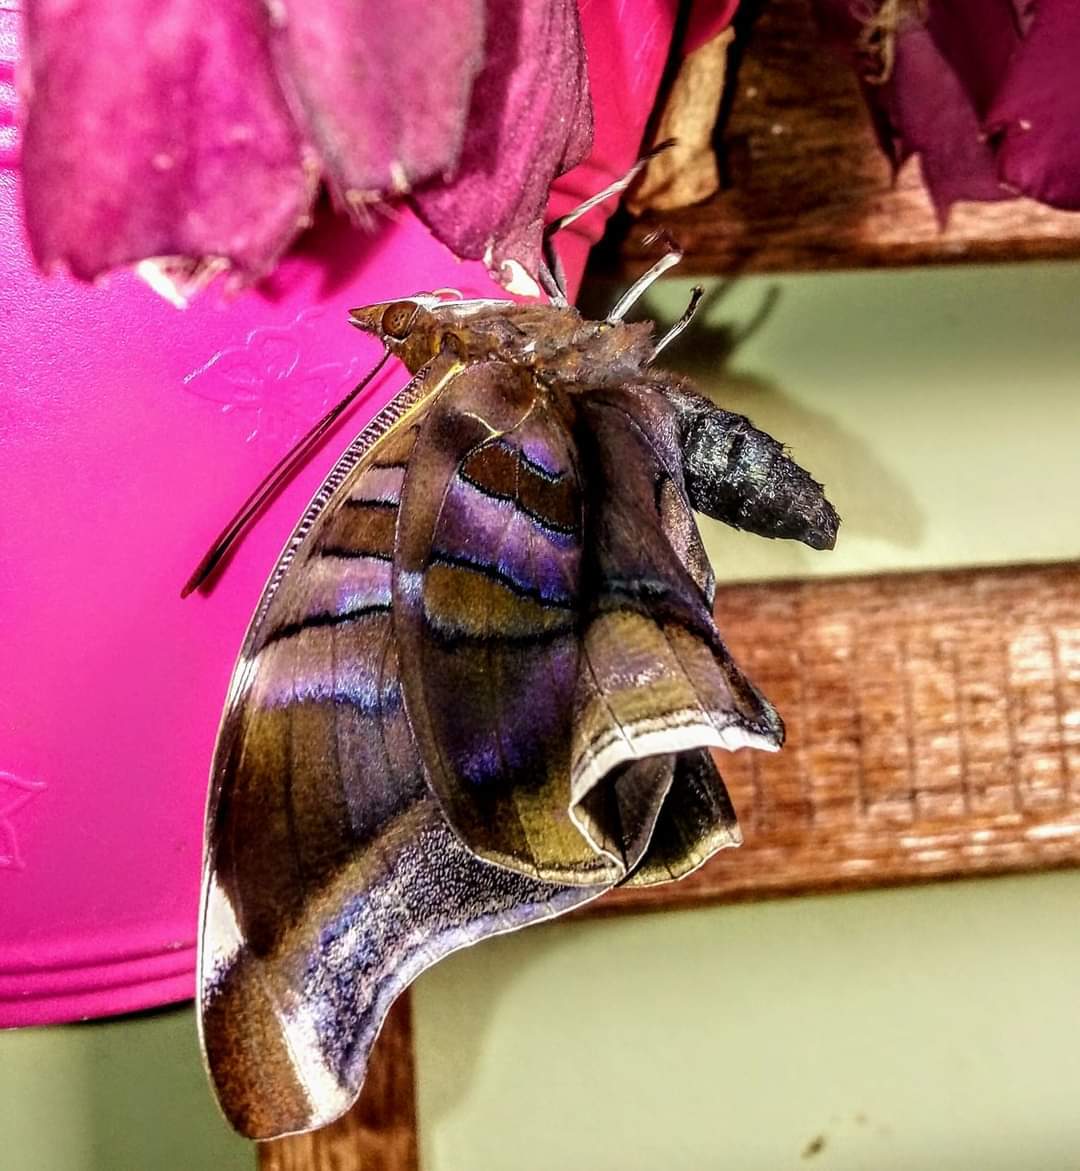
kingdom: Animalia
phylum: Arthropoda
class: Insecta
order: Lepidoptera
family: Nymphalidae
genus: Historis
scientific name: Historis odius
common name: Orion cecropian
